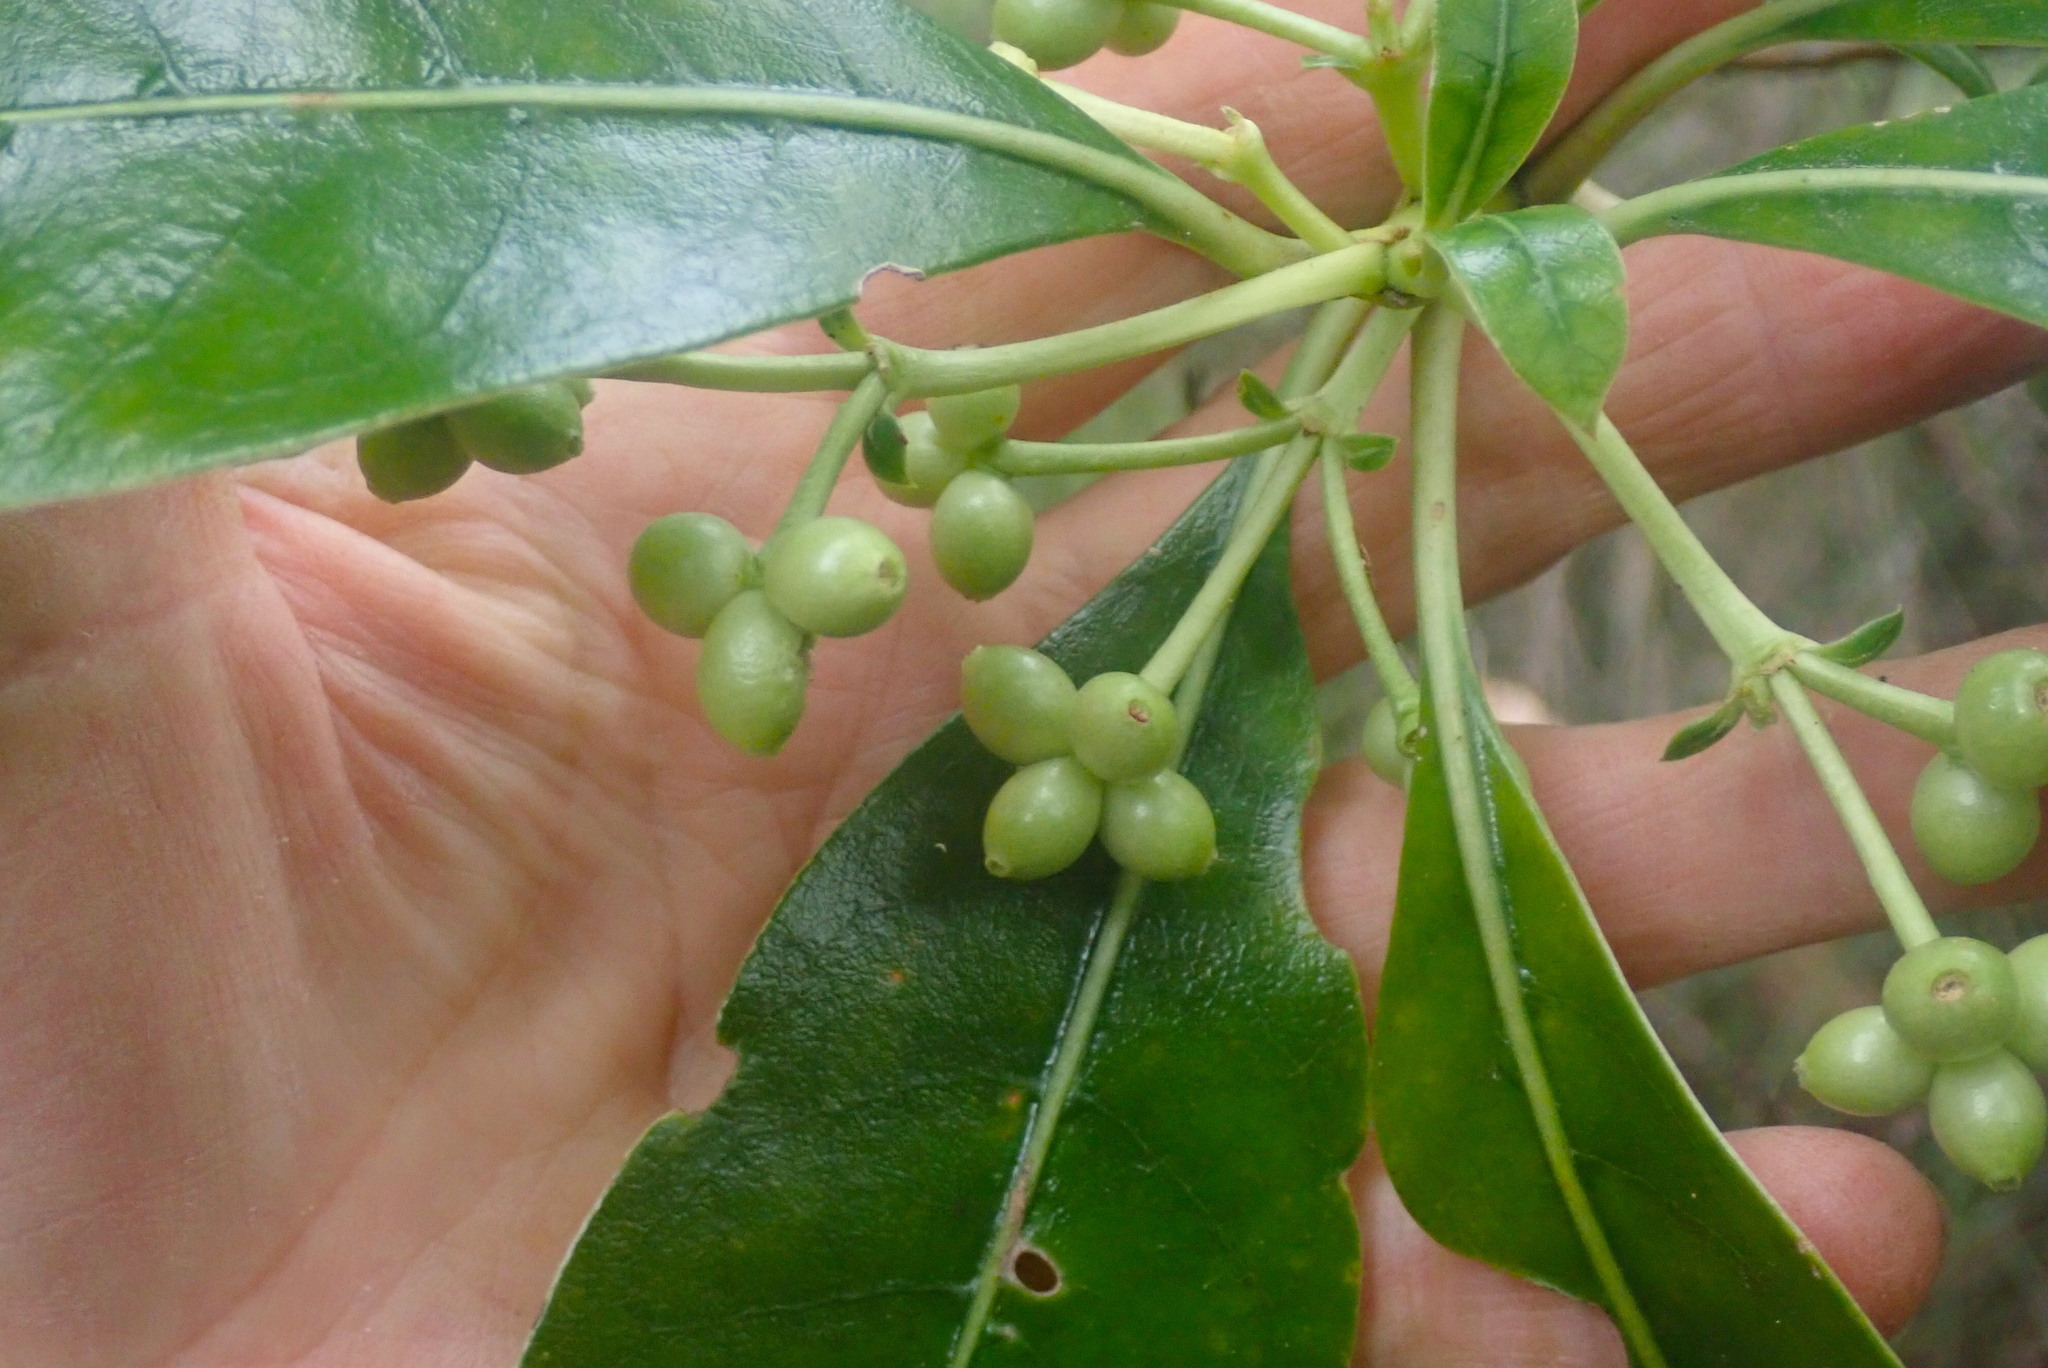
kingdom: Plantae
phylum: Tracheophyta
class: Magnoliopsida
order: Gentianales
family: Rubiaceae
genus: Coprosma
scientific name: Coprosma lucida
